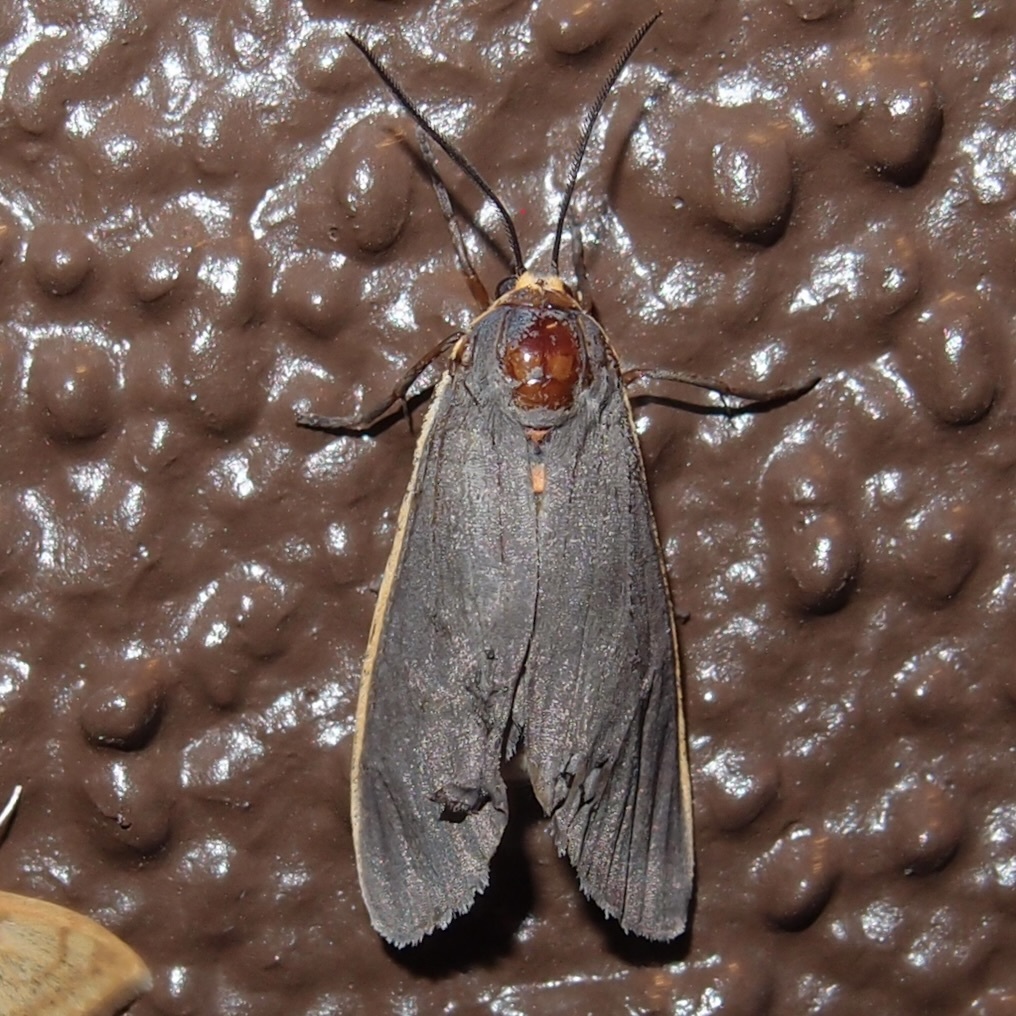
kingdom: Animalia
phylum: Arthropoda
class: Insecta
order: Lepidoptera
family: Erebidae
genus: Euchaetes
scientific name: Euchaetes antica
